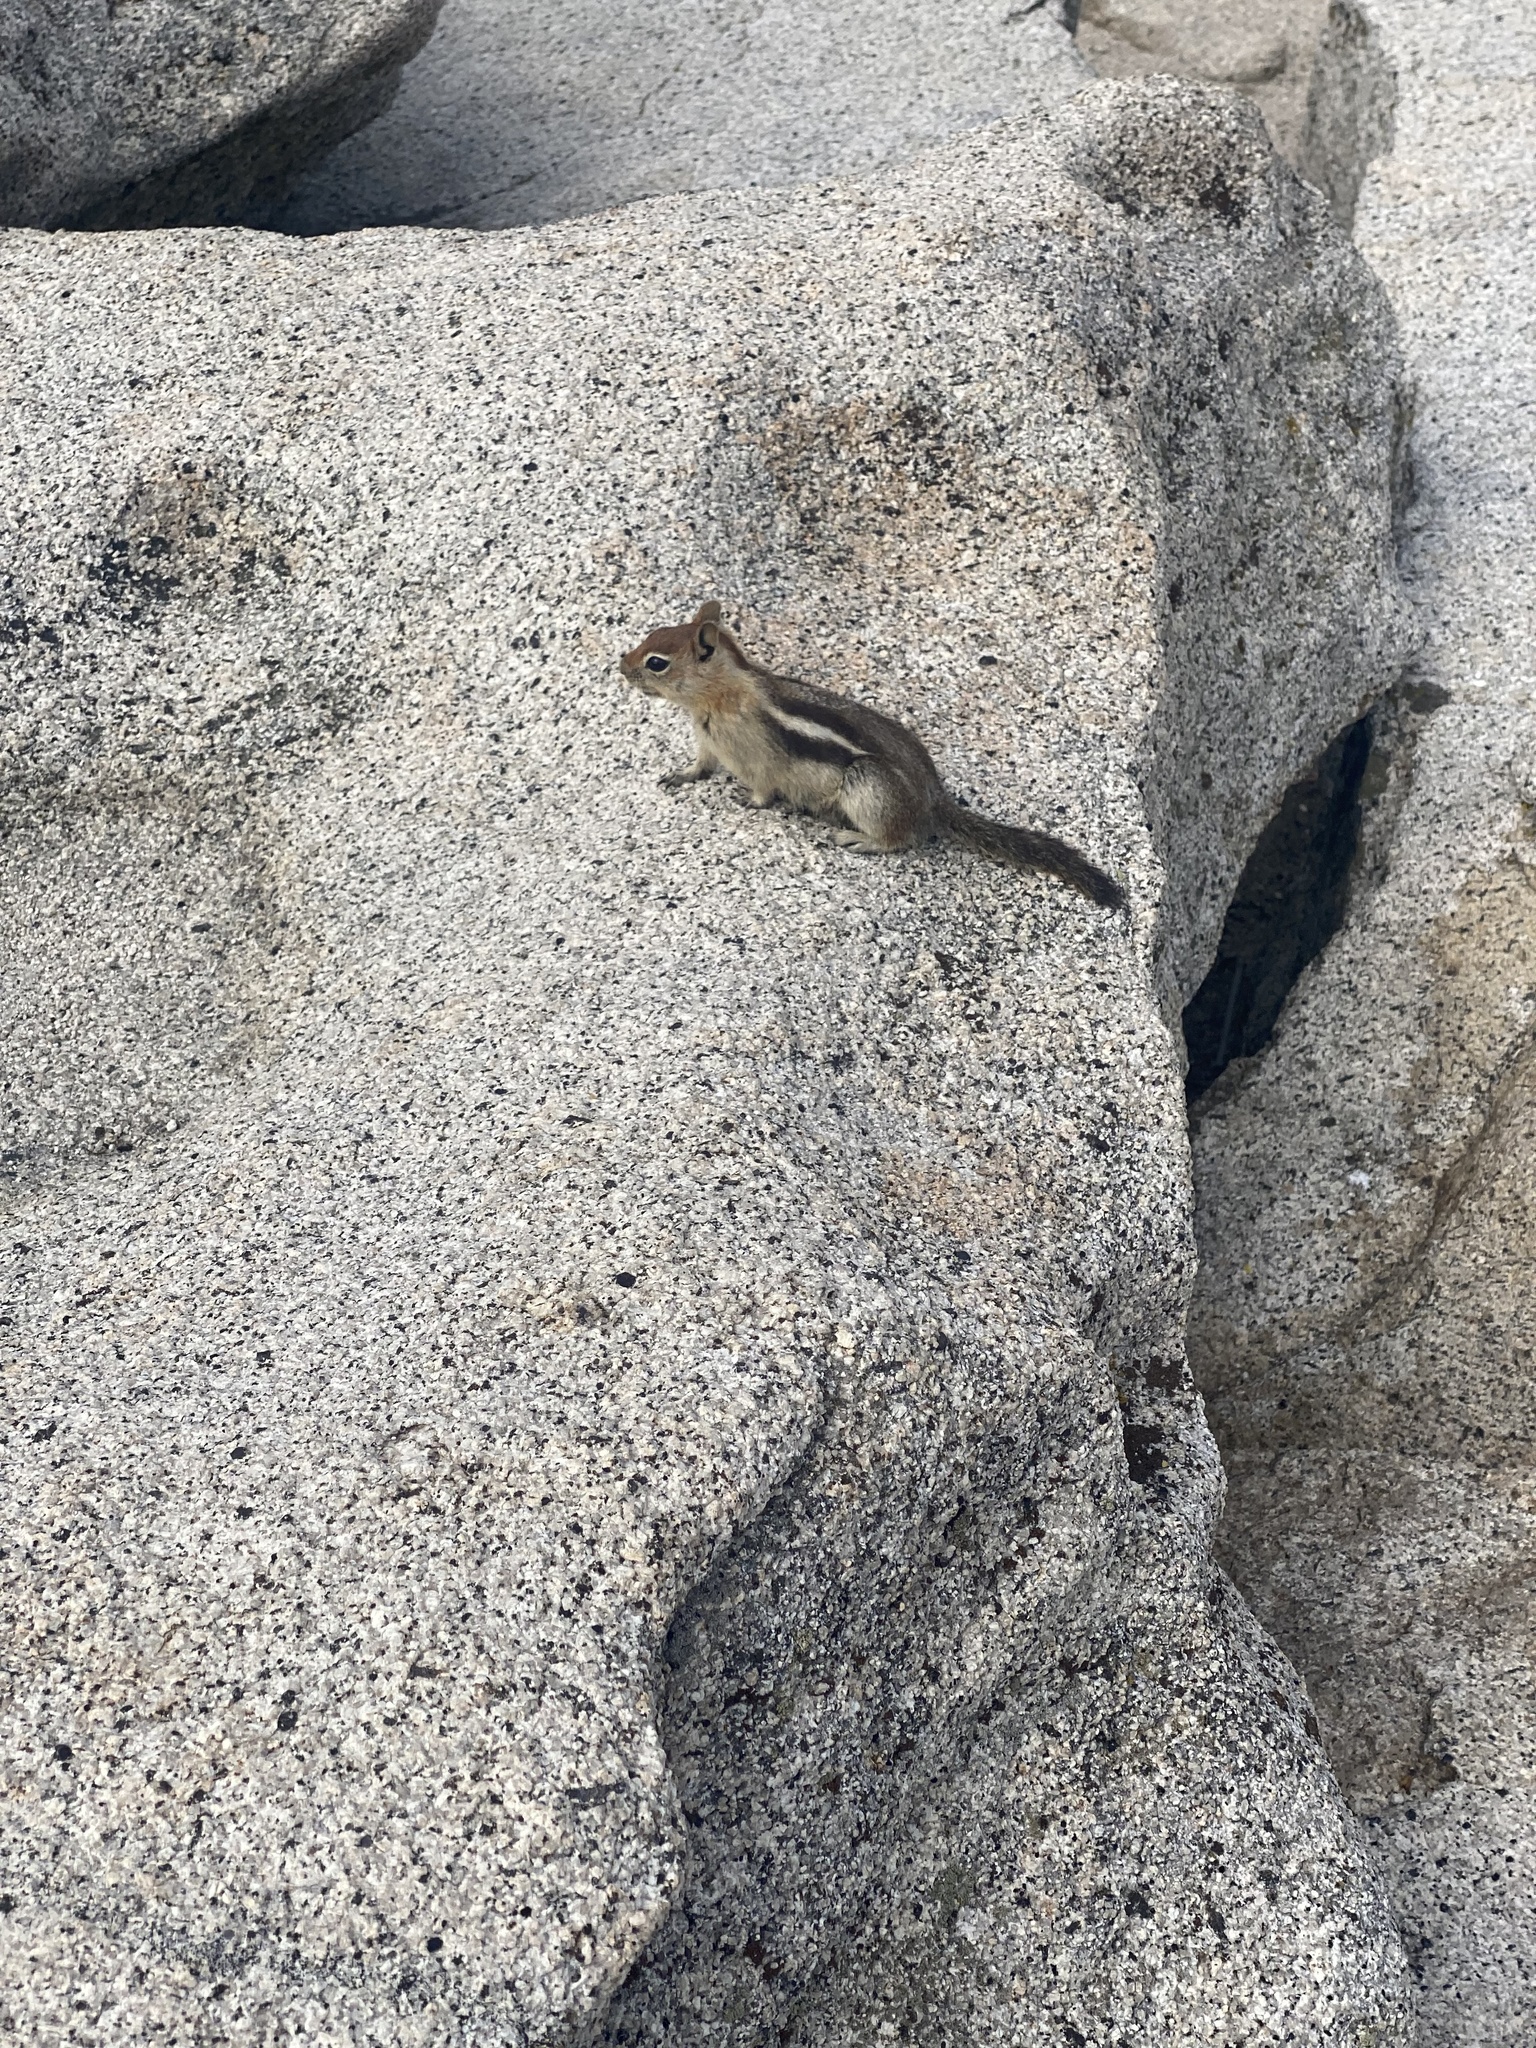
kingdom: Animalia
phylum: Chordata
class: Mammalia
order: Rodentia
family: Sciuridae
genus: Callospermophilus
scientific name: Callospermophilus lateralis
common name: Golden-mantled ground squirrel
